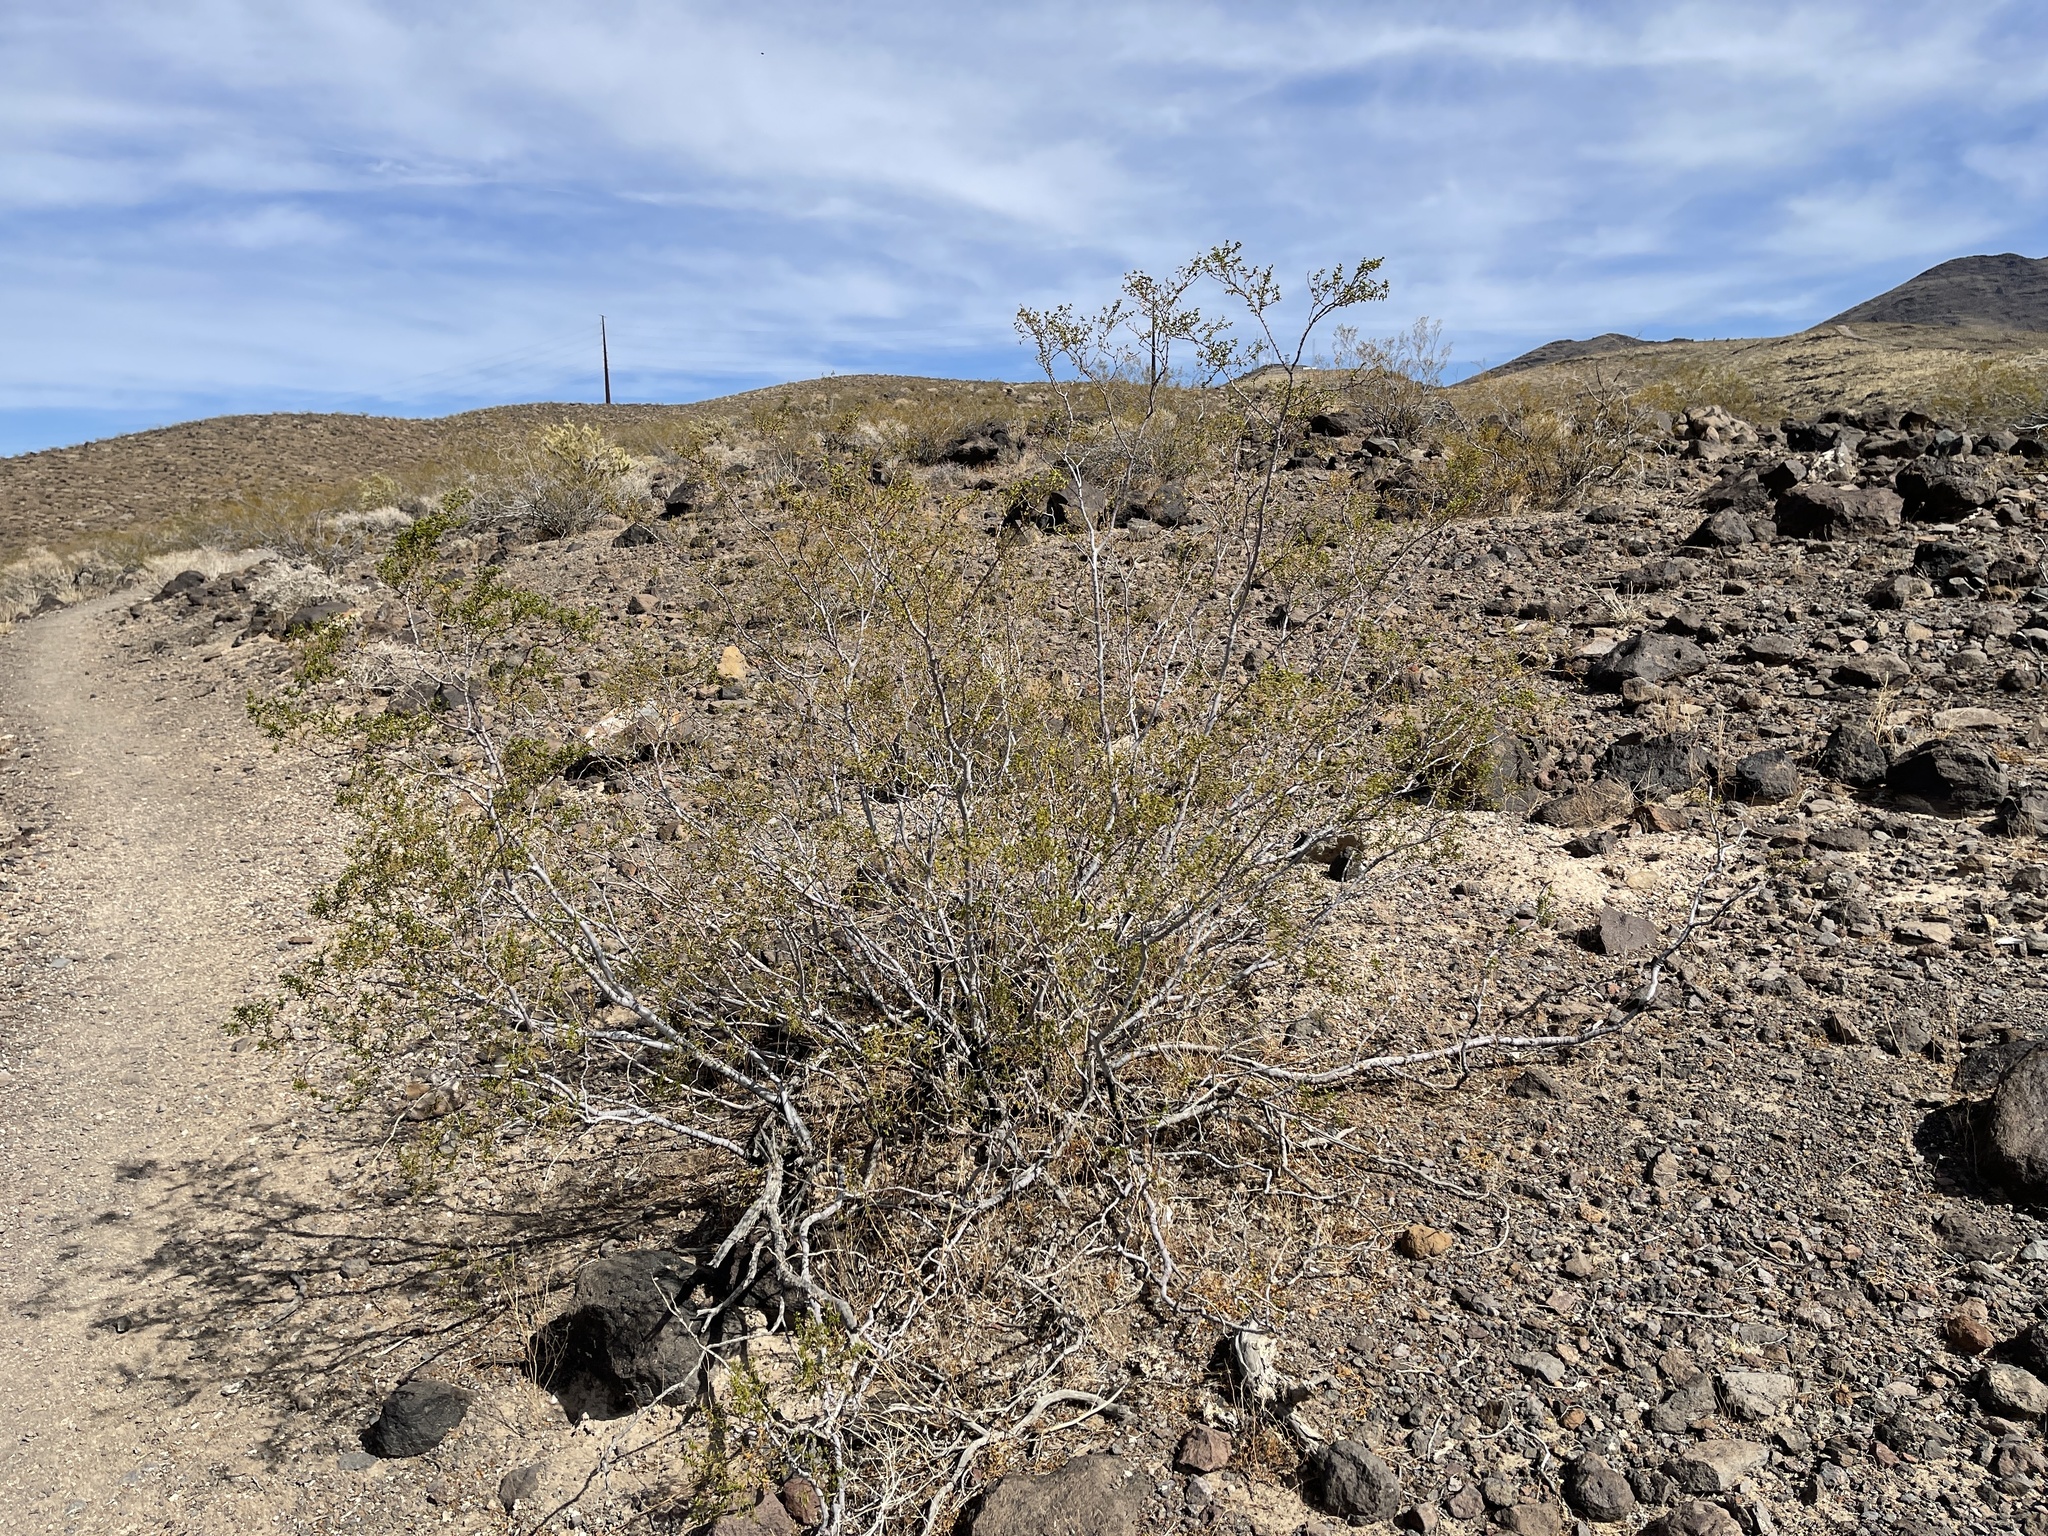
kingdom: Plantae
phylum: Tracheophyta
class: Magnoliopsida
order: Zygophyllales
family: Zygophyllaceae
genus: Larrea
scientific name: Larrea tridentata
